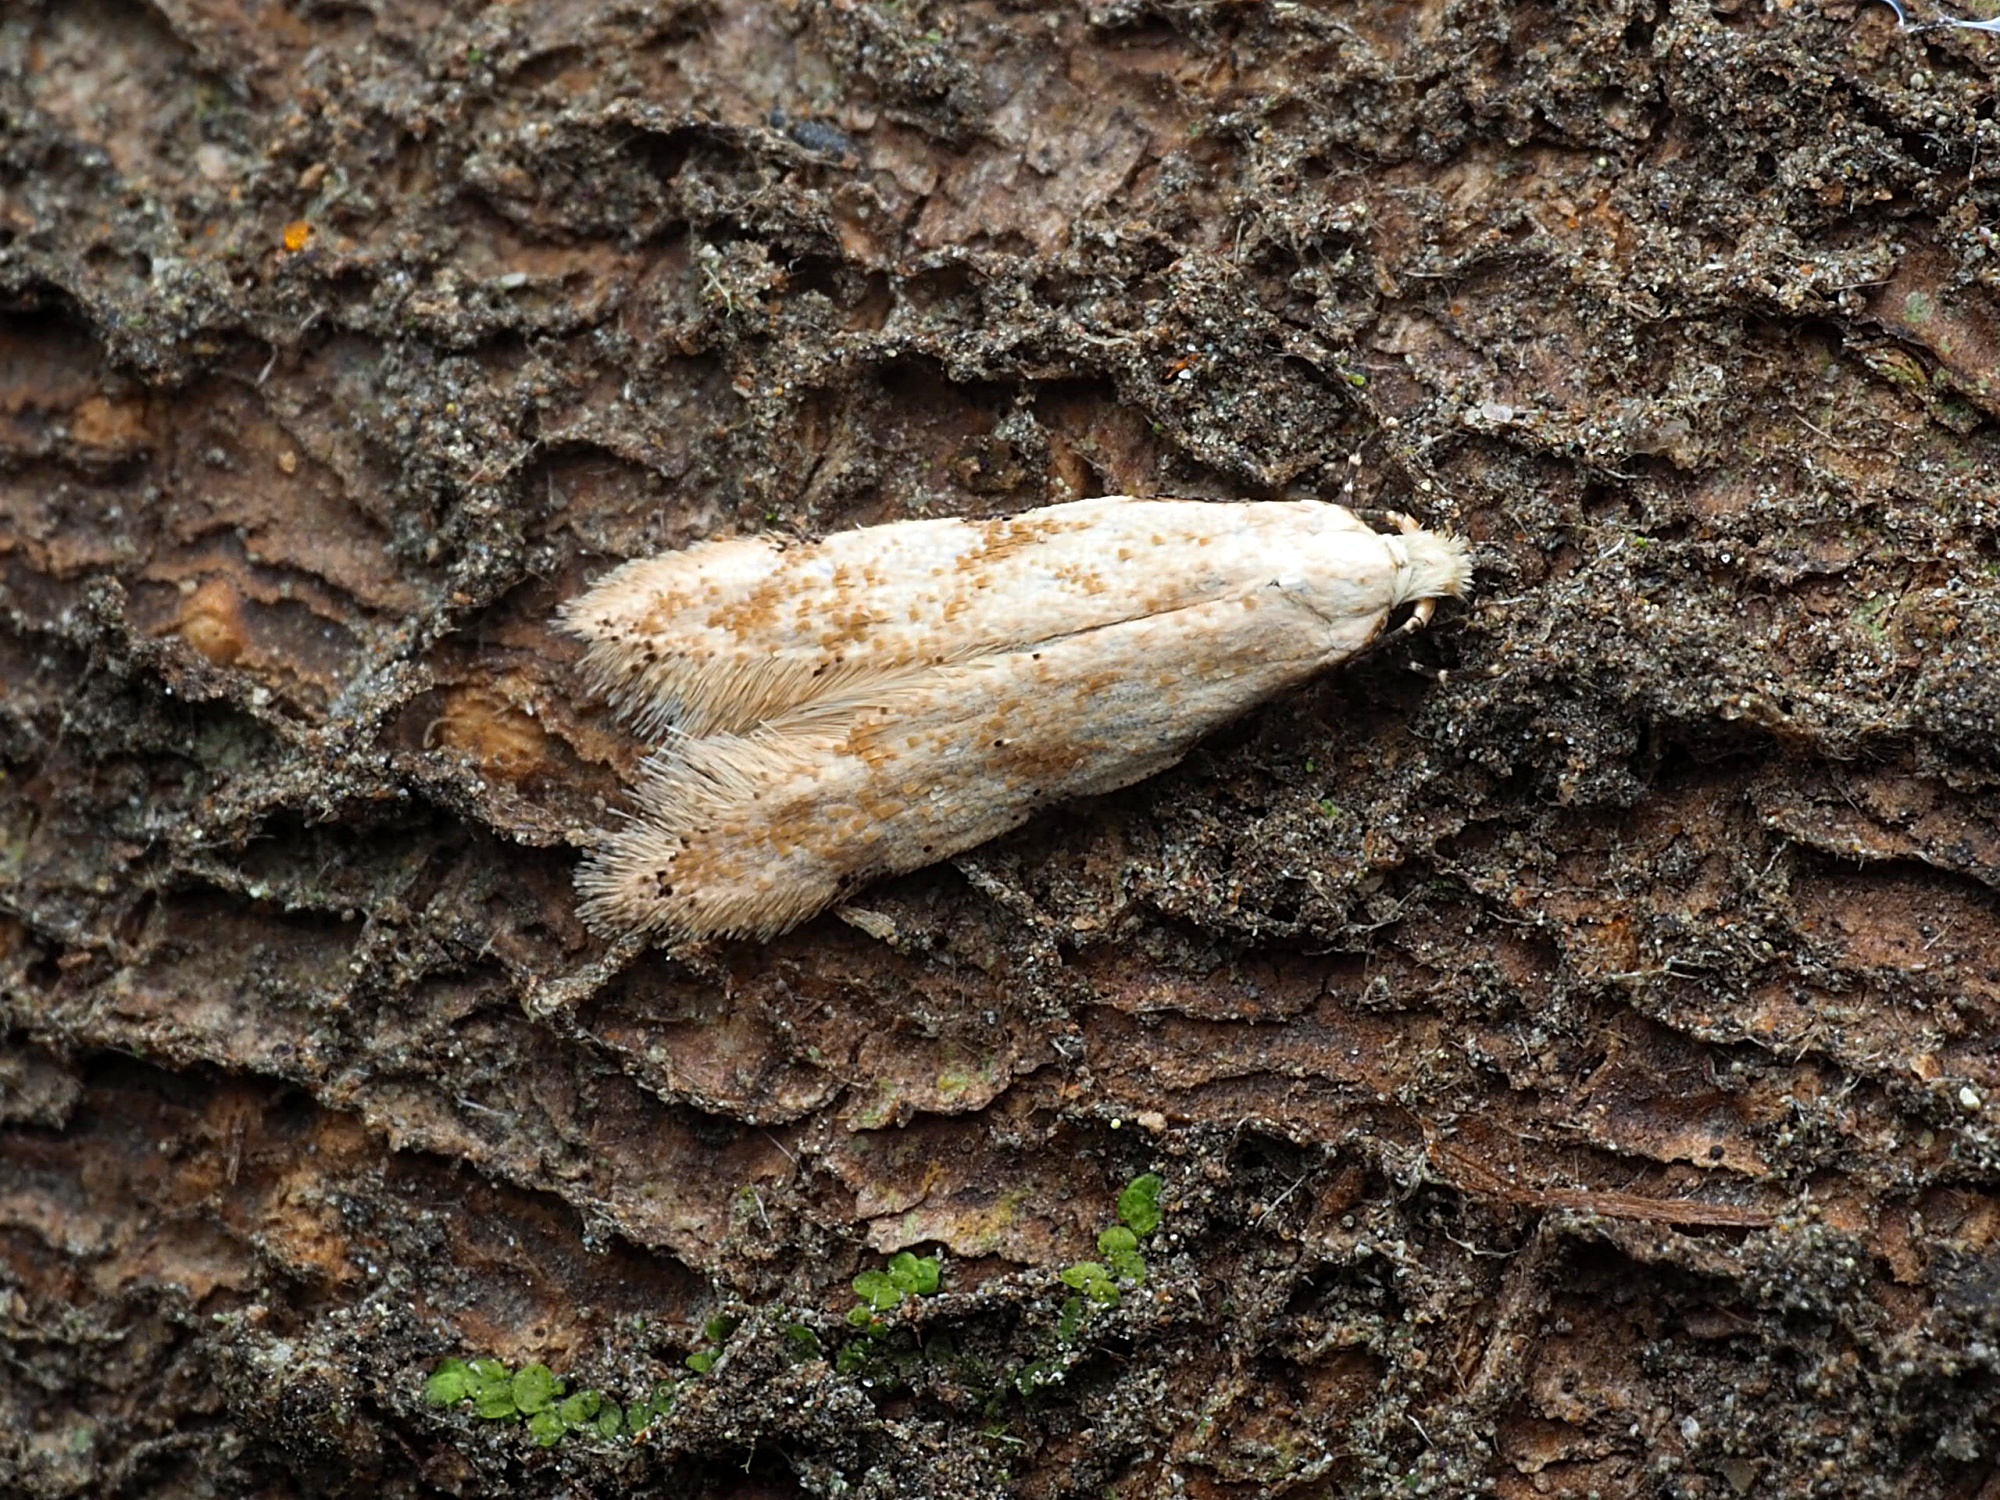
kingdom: Animalia
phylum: Arthropoda
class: Insecta
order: Lepidoptera
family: Tineidae
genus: Endophthora
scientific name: Endophthora omogramma
